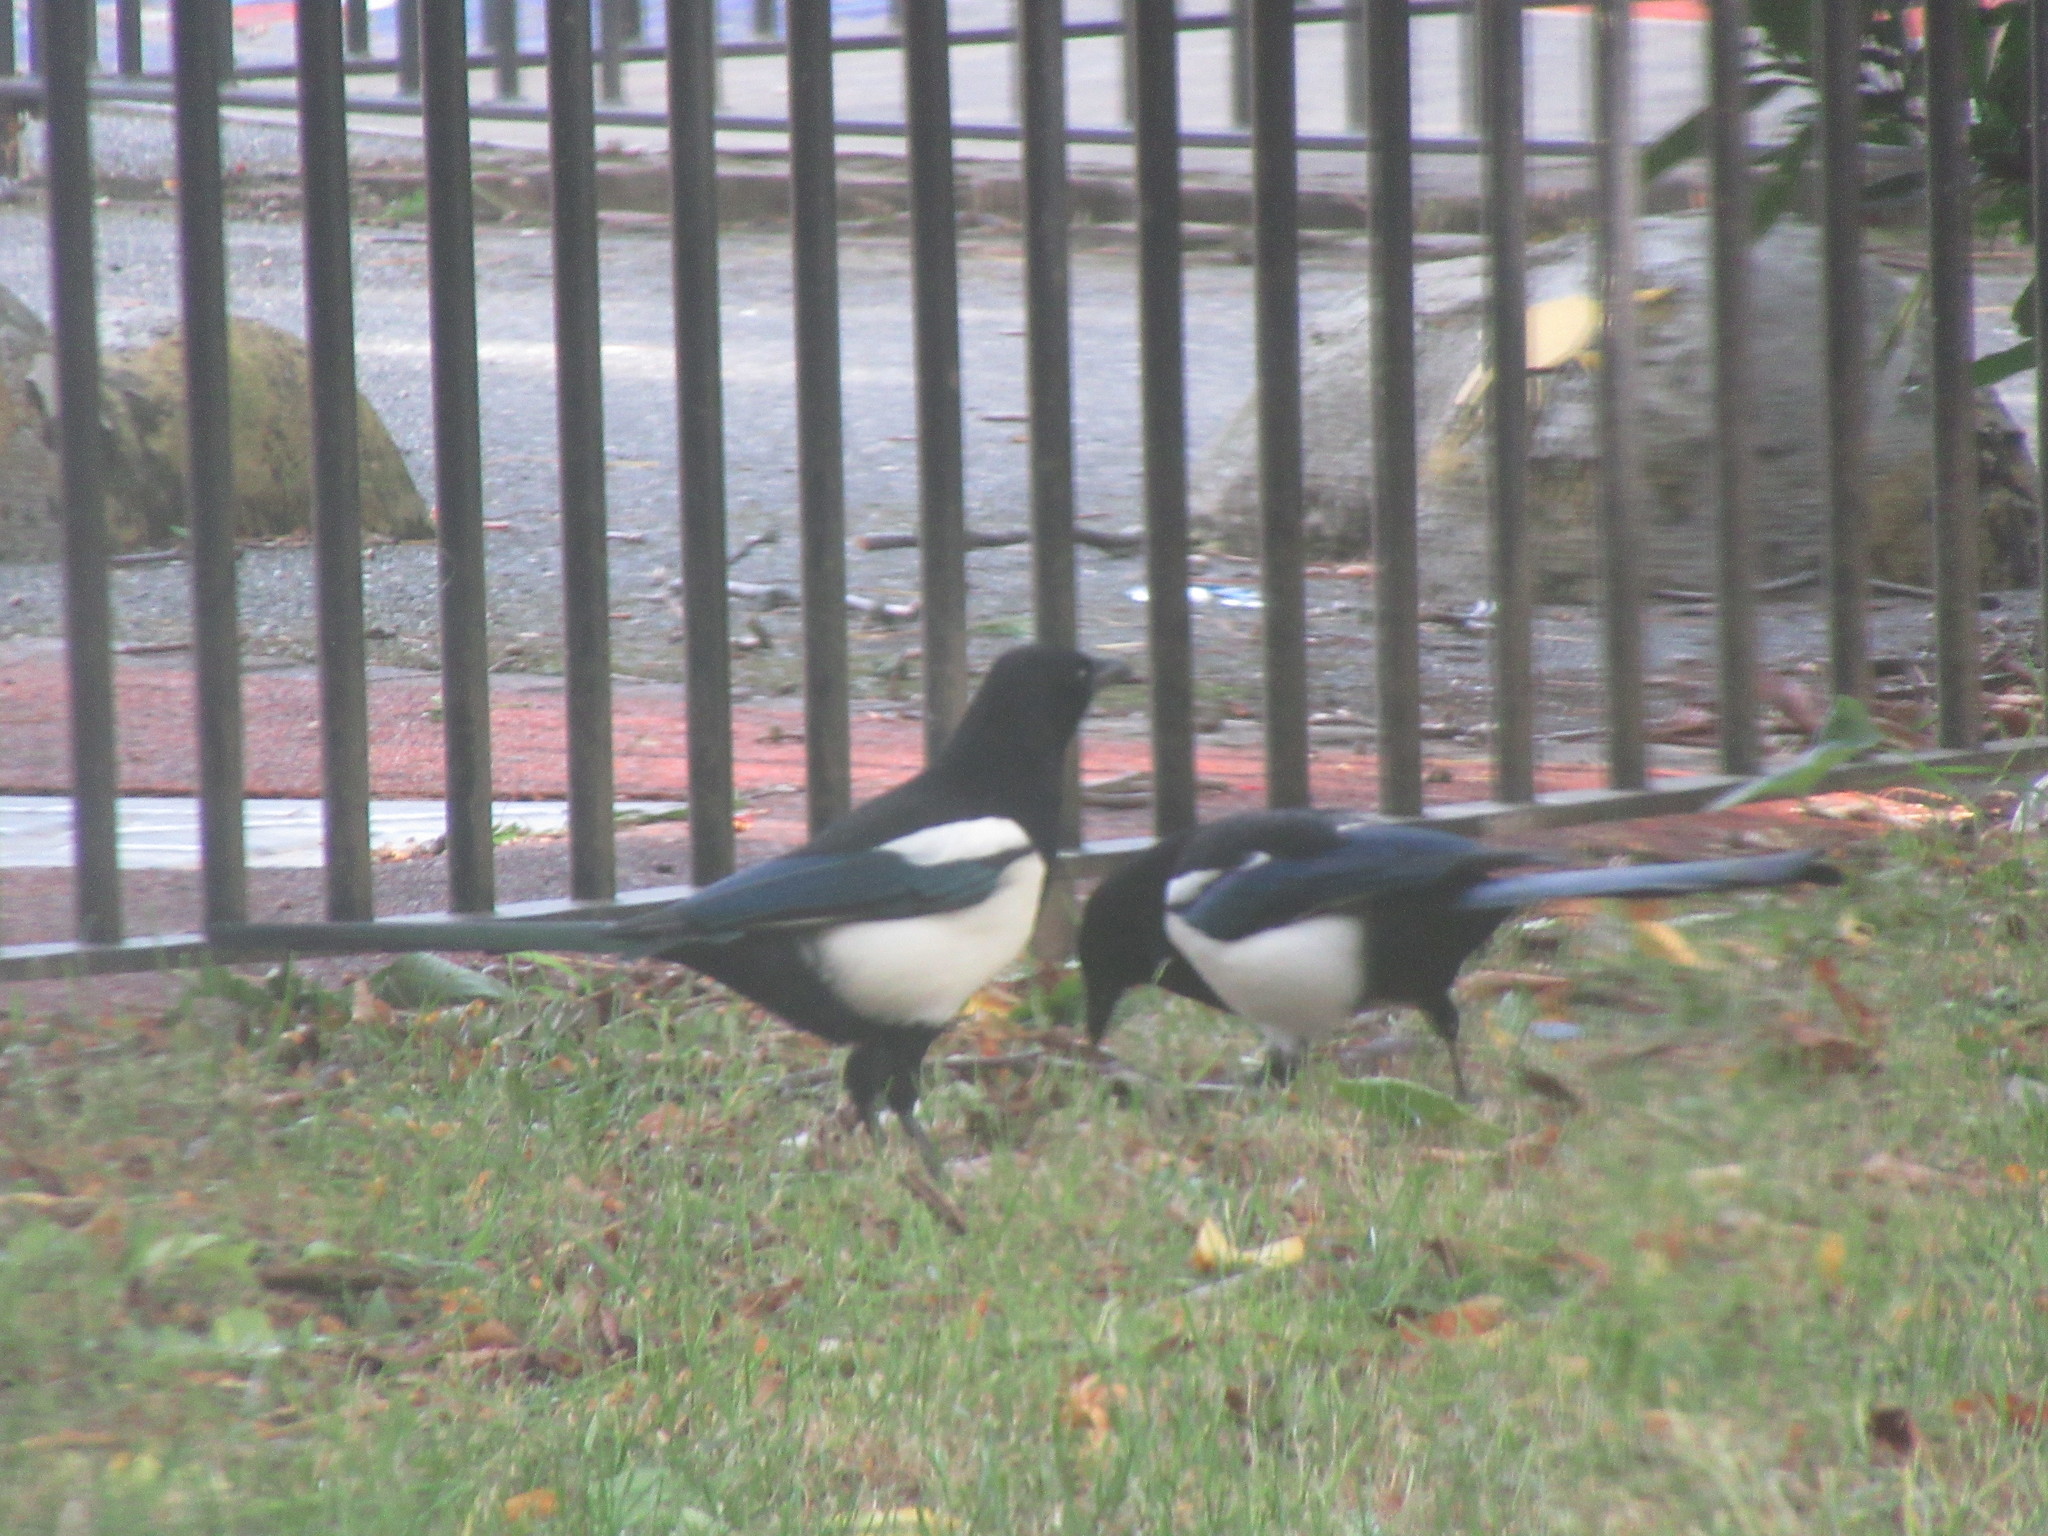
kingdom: Animalia
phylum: Chordata
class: Aves
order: Passeriformes
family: Corvidae
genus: Pica
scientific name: Pica pica
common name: Eurasian magpie
